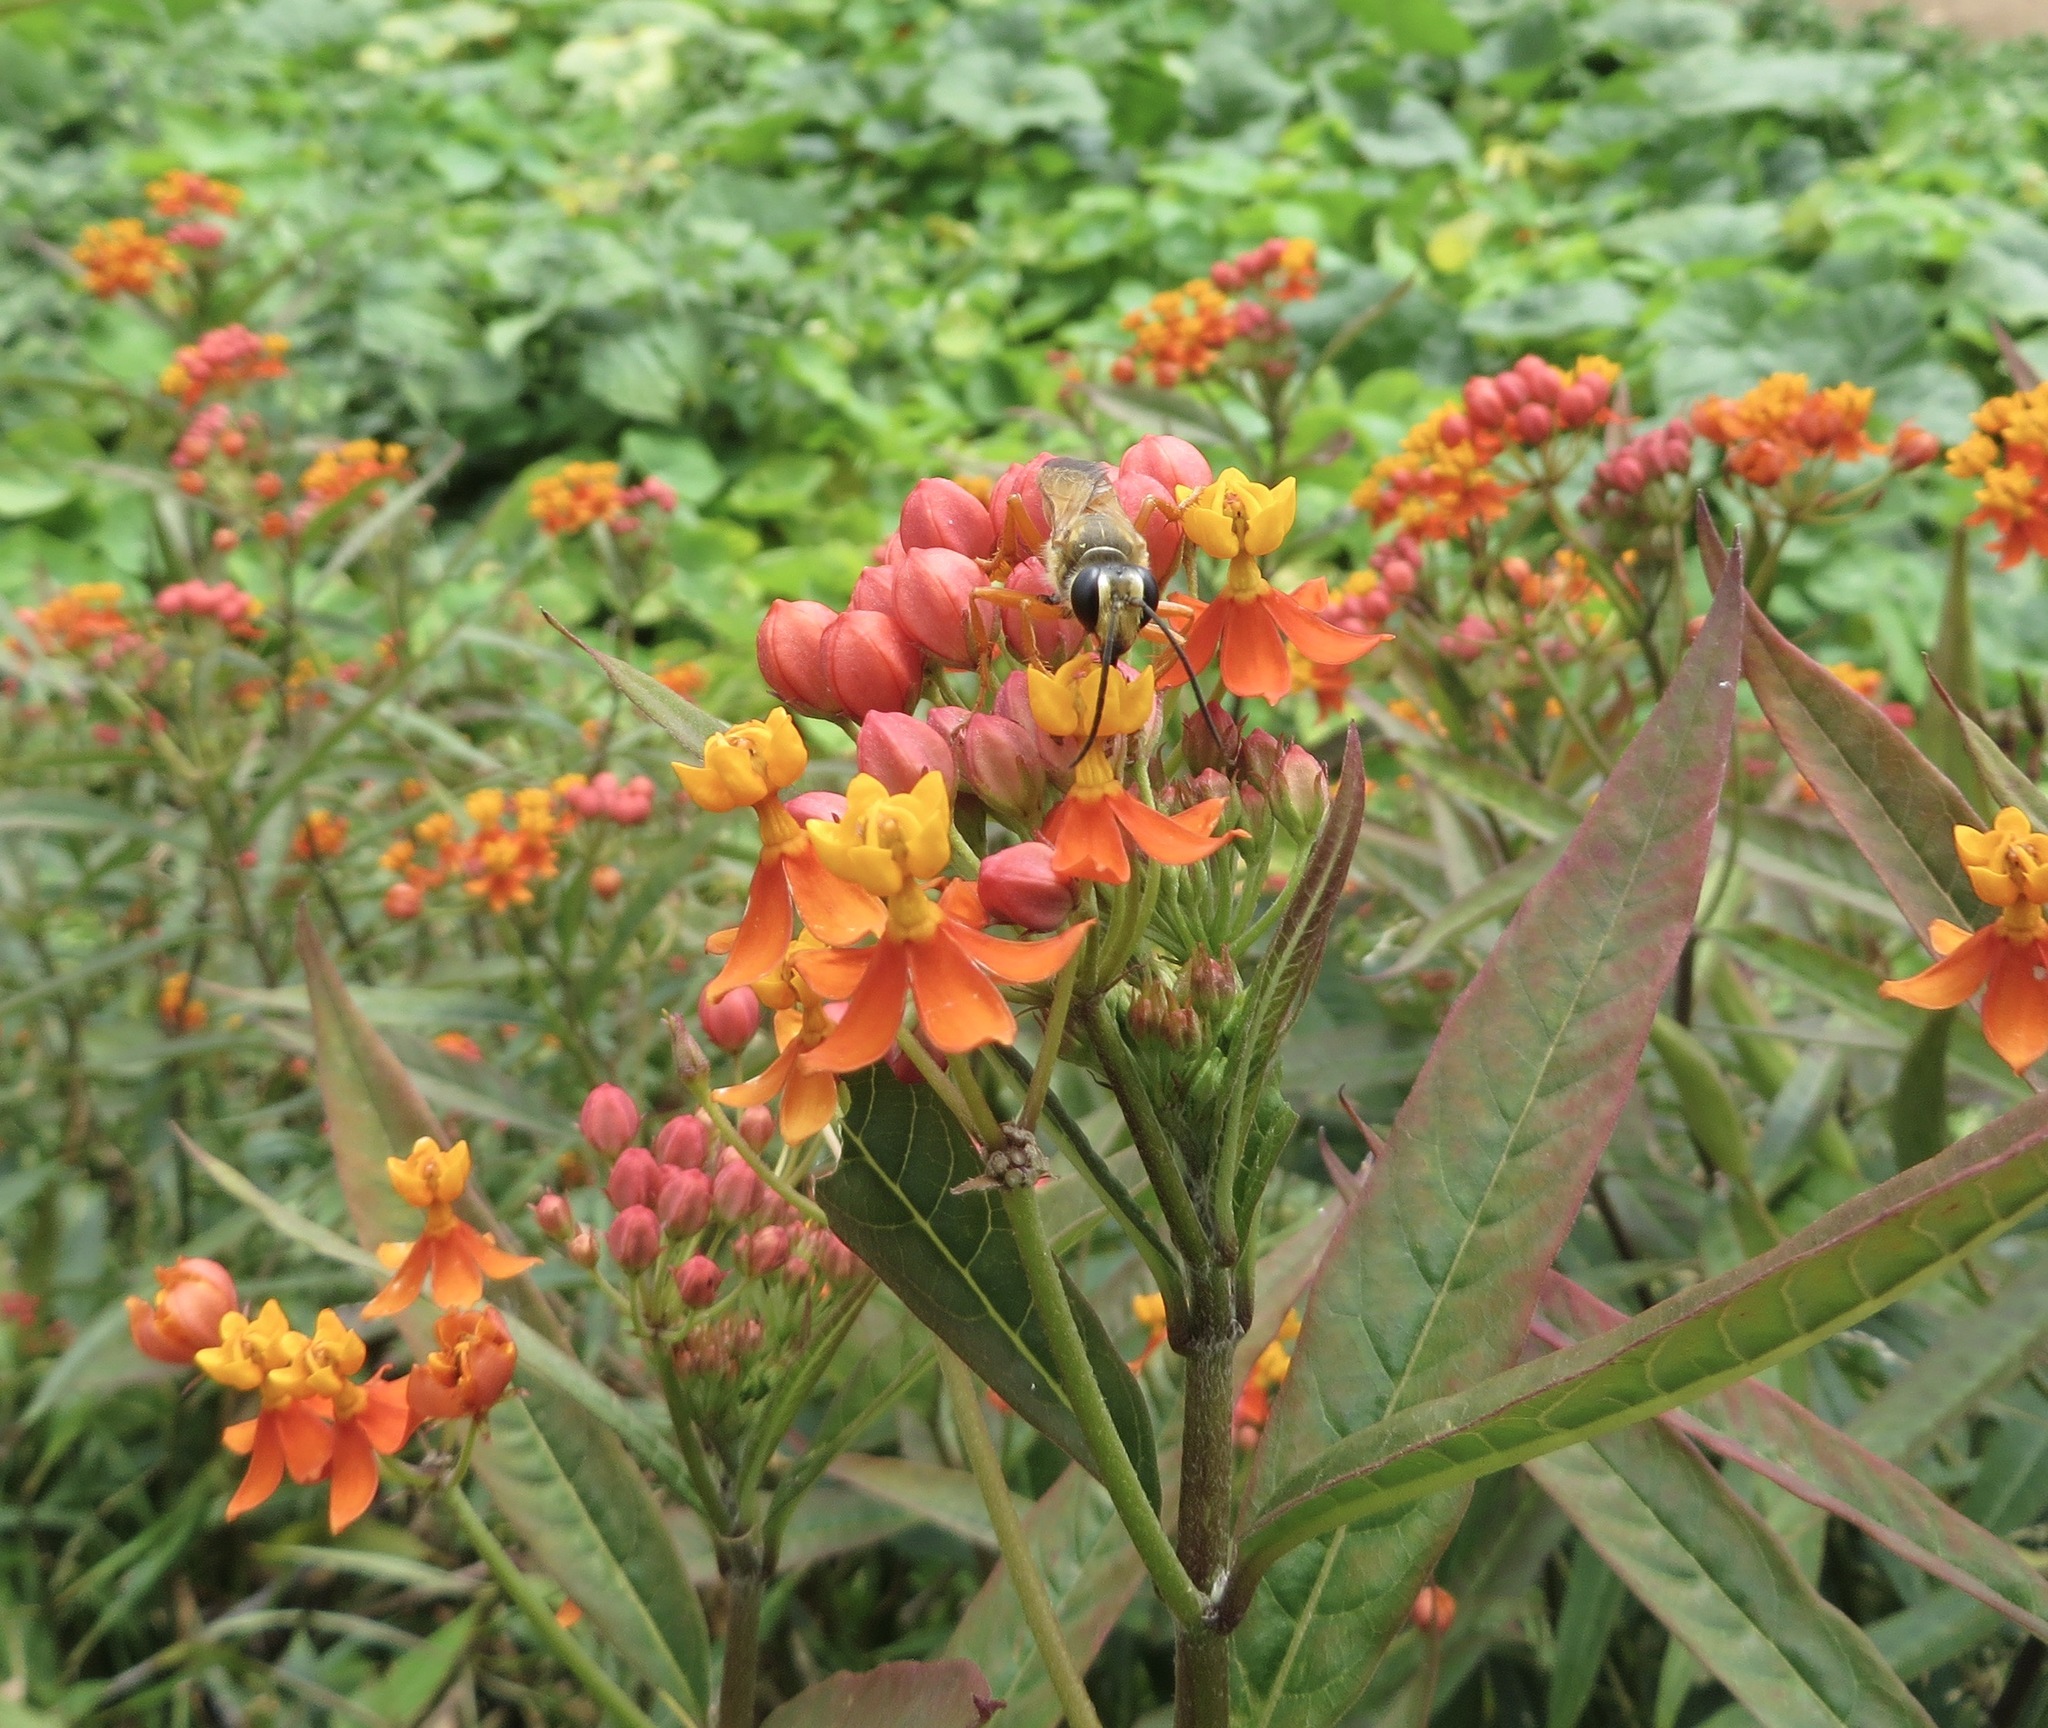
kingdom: Animalia
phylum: Arthropoda
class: Insecta
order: Hymenoptera
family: Sphecidae
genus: Sphex
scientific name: Sphex ichneumoneus
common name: Great golden digger wasp
